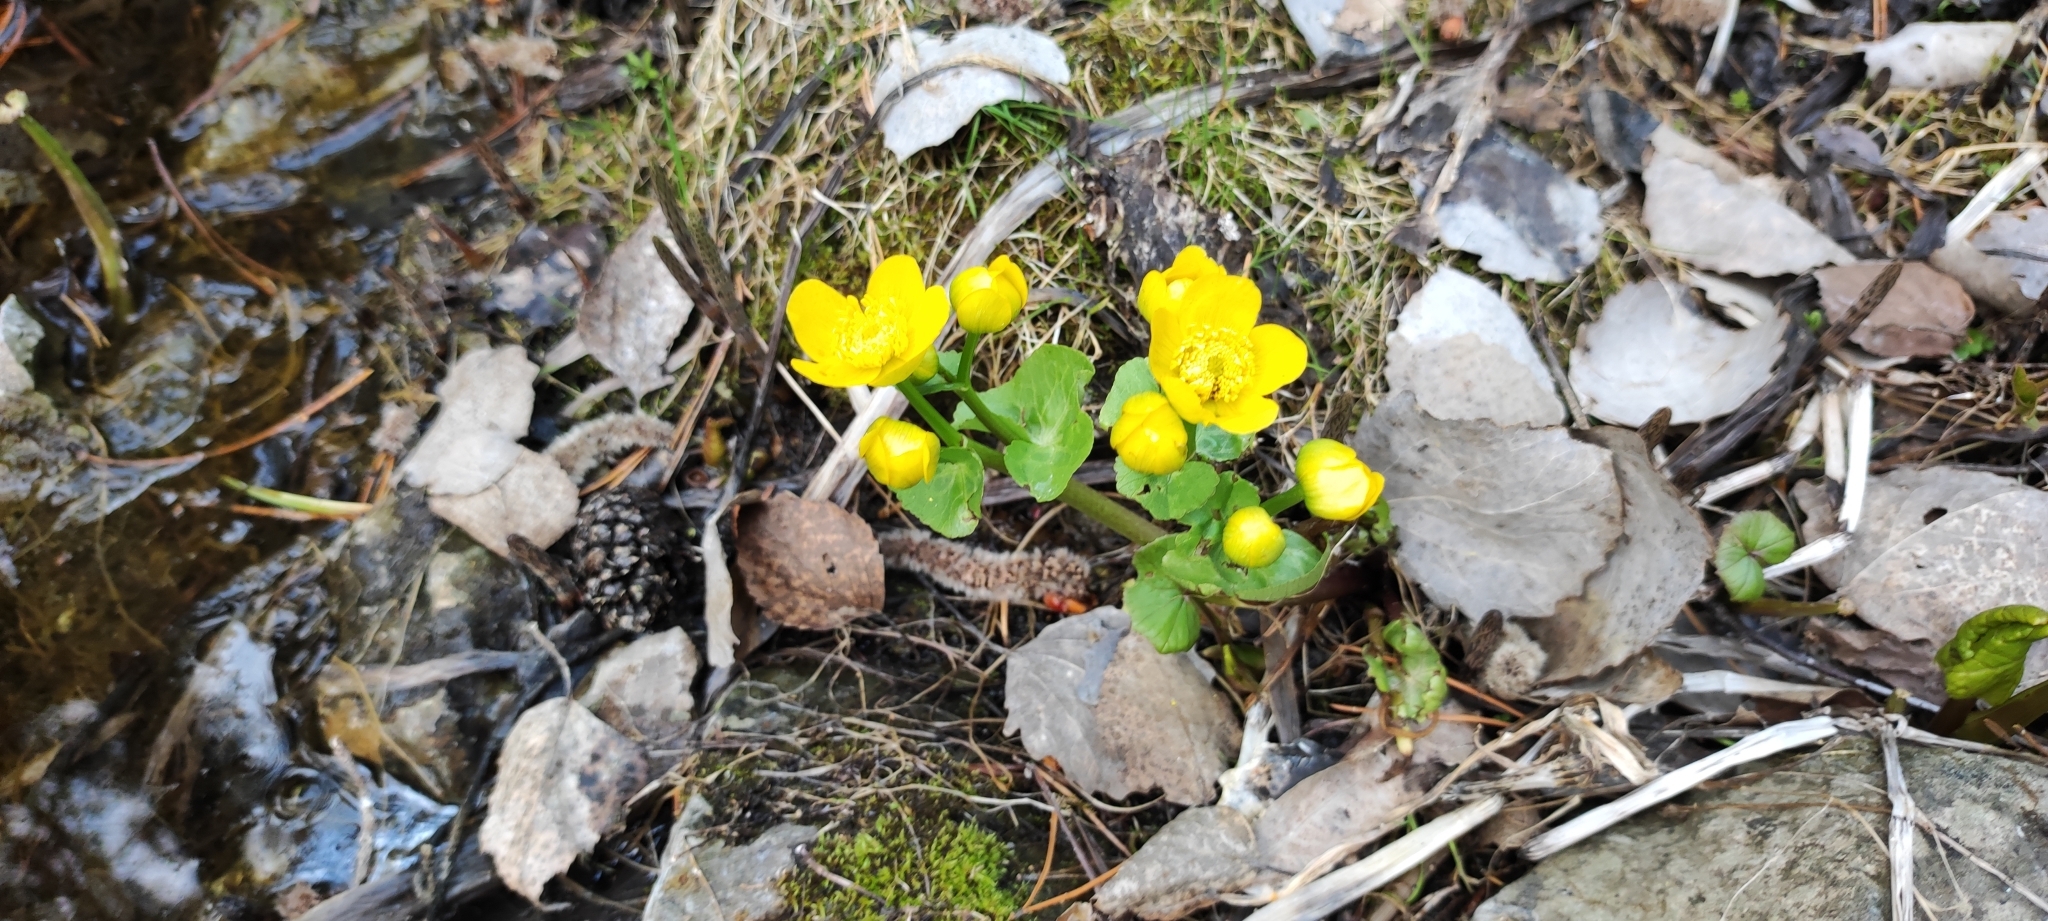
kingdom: Plantae
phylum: Tracheophyta
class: Magnoliopsida
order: Ranunculales
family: Ranunculaceae
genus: Caltha
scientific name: Caltha palustris
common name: Marsh marigold
